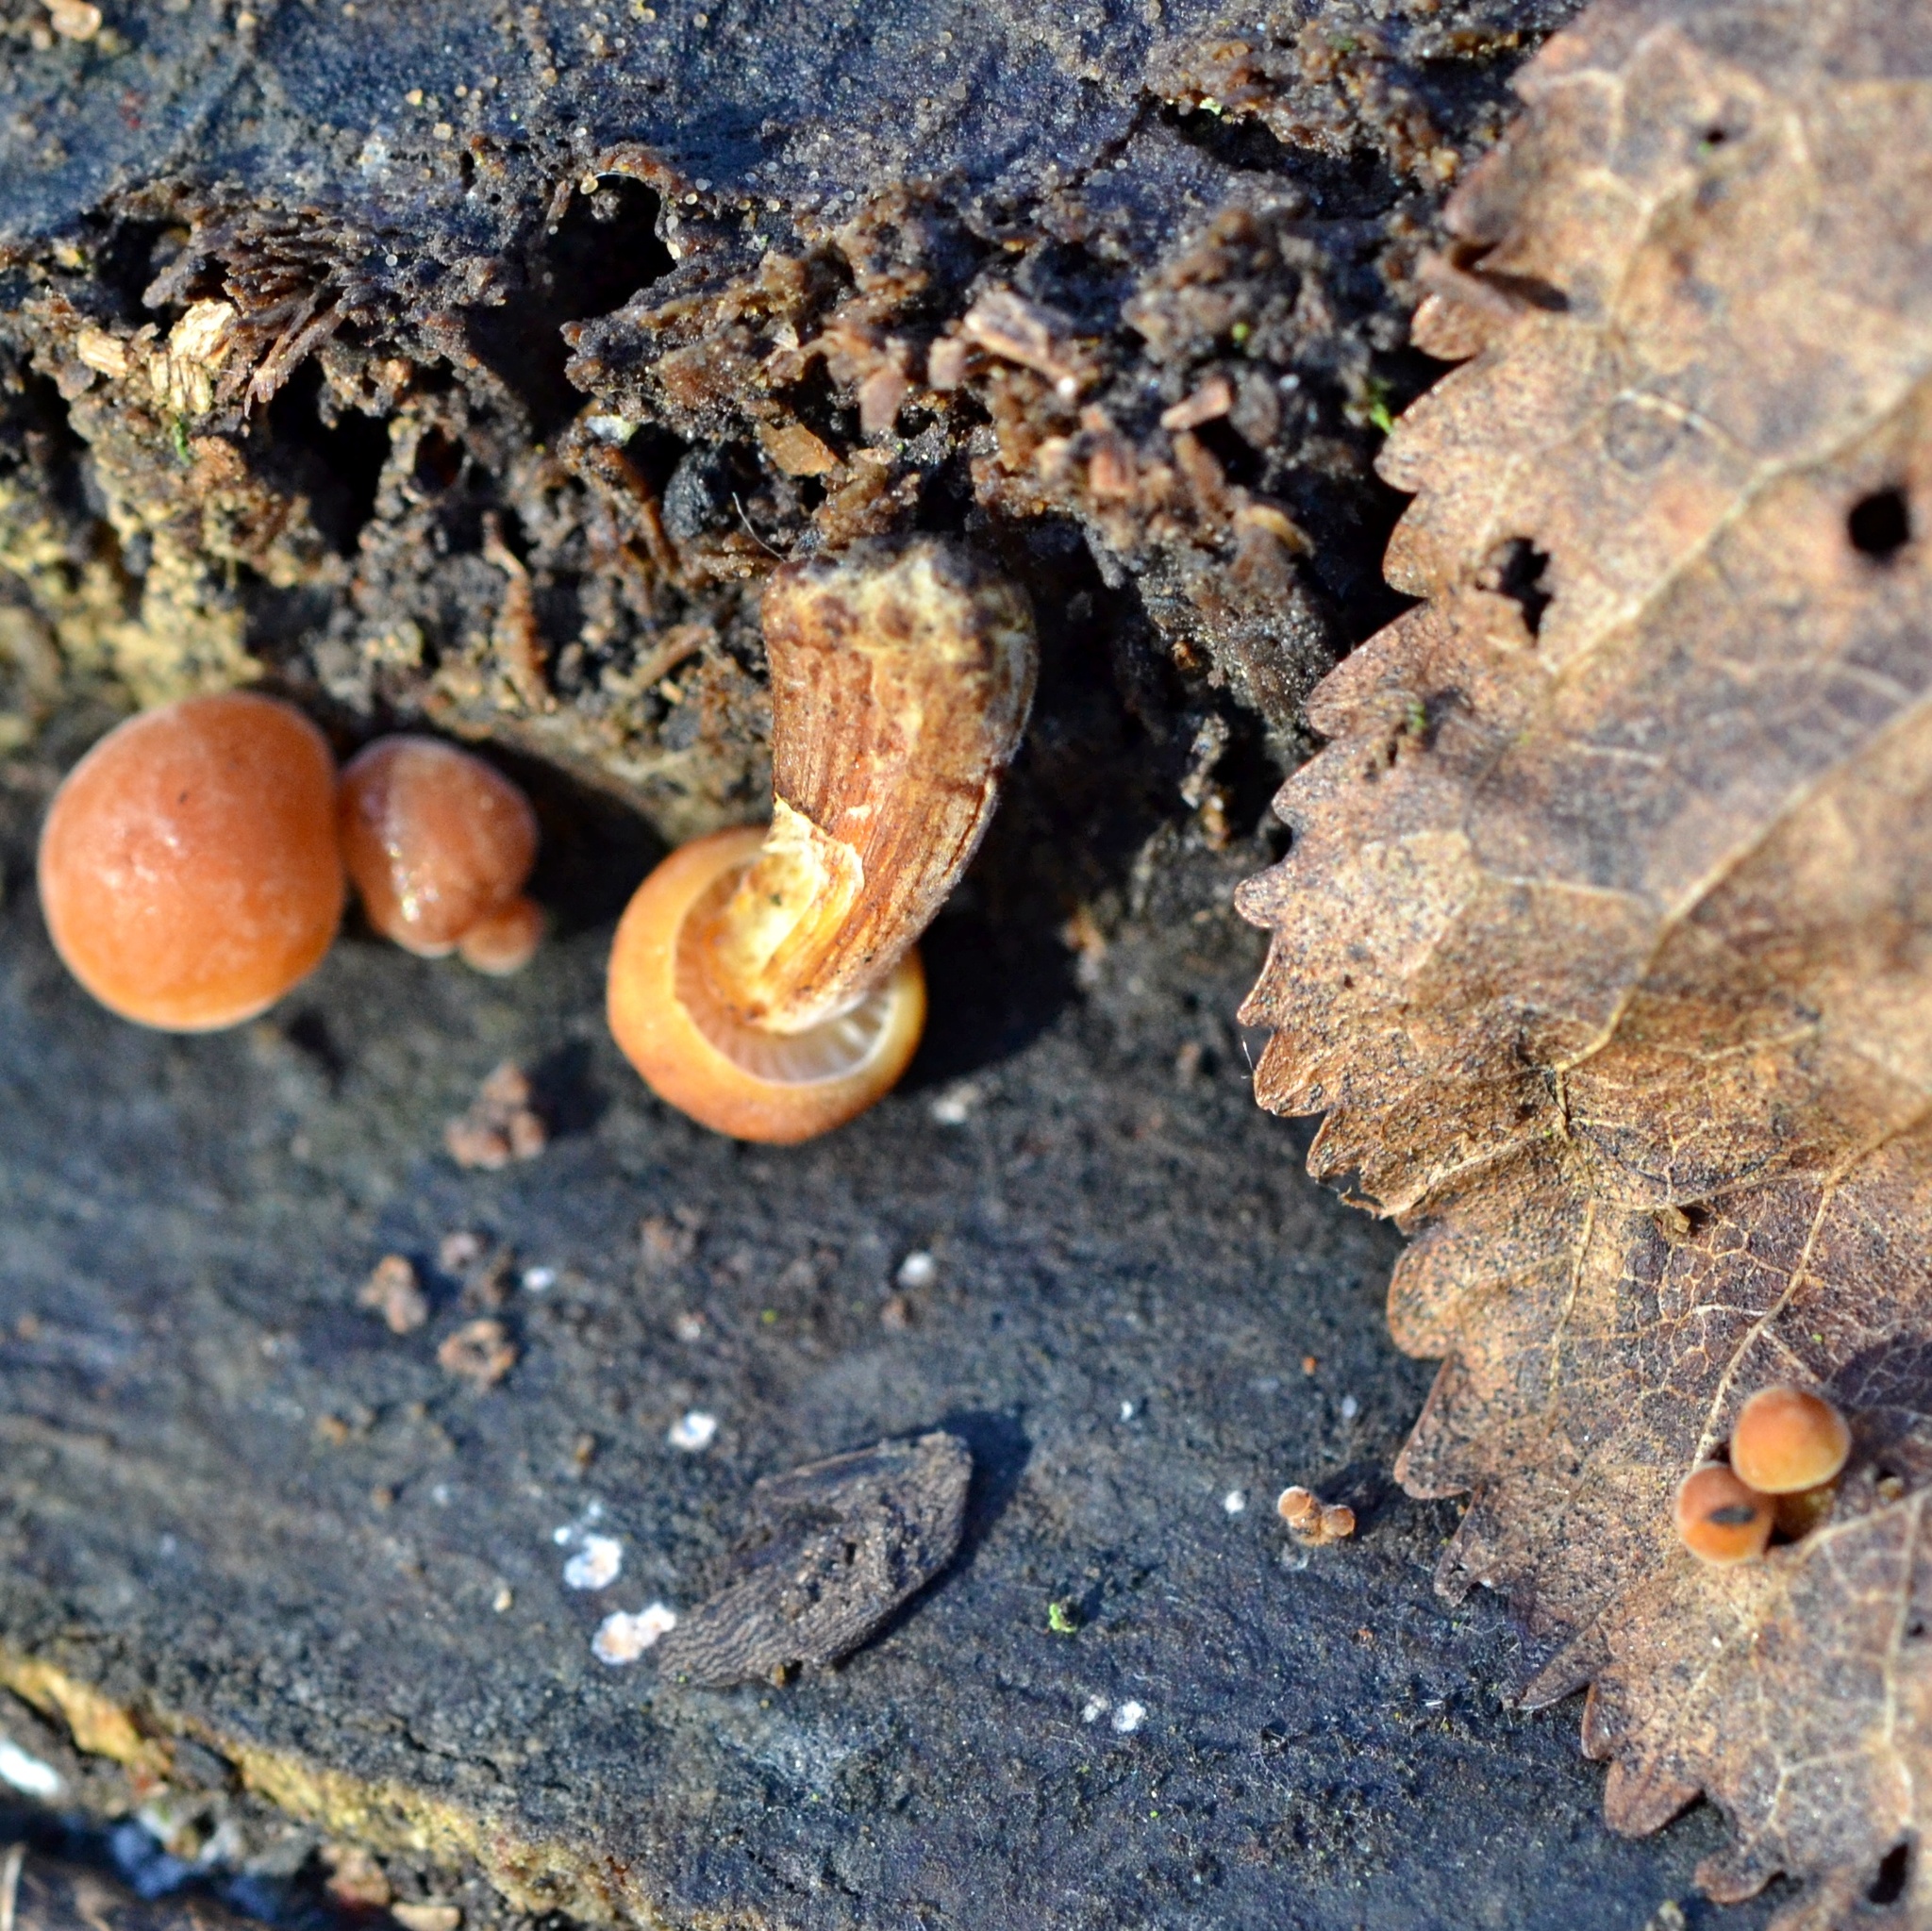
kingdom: Fungi
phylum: Basidiomycota
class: Agaricomycetes
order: Agaricales
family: Physalacriaceae
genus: Flammulina
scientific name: Flammulina
